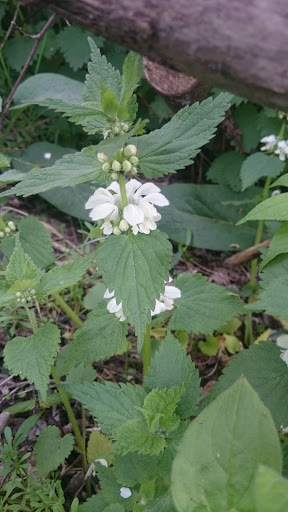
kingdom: Plantae
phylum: Tracheophyta
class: Magnoliopsida
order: Lamiales
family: Lamiaceae
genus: Lamium
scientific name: Lamium album
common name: White dead-nettle
